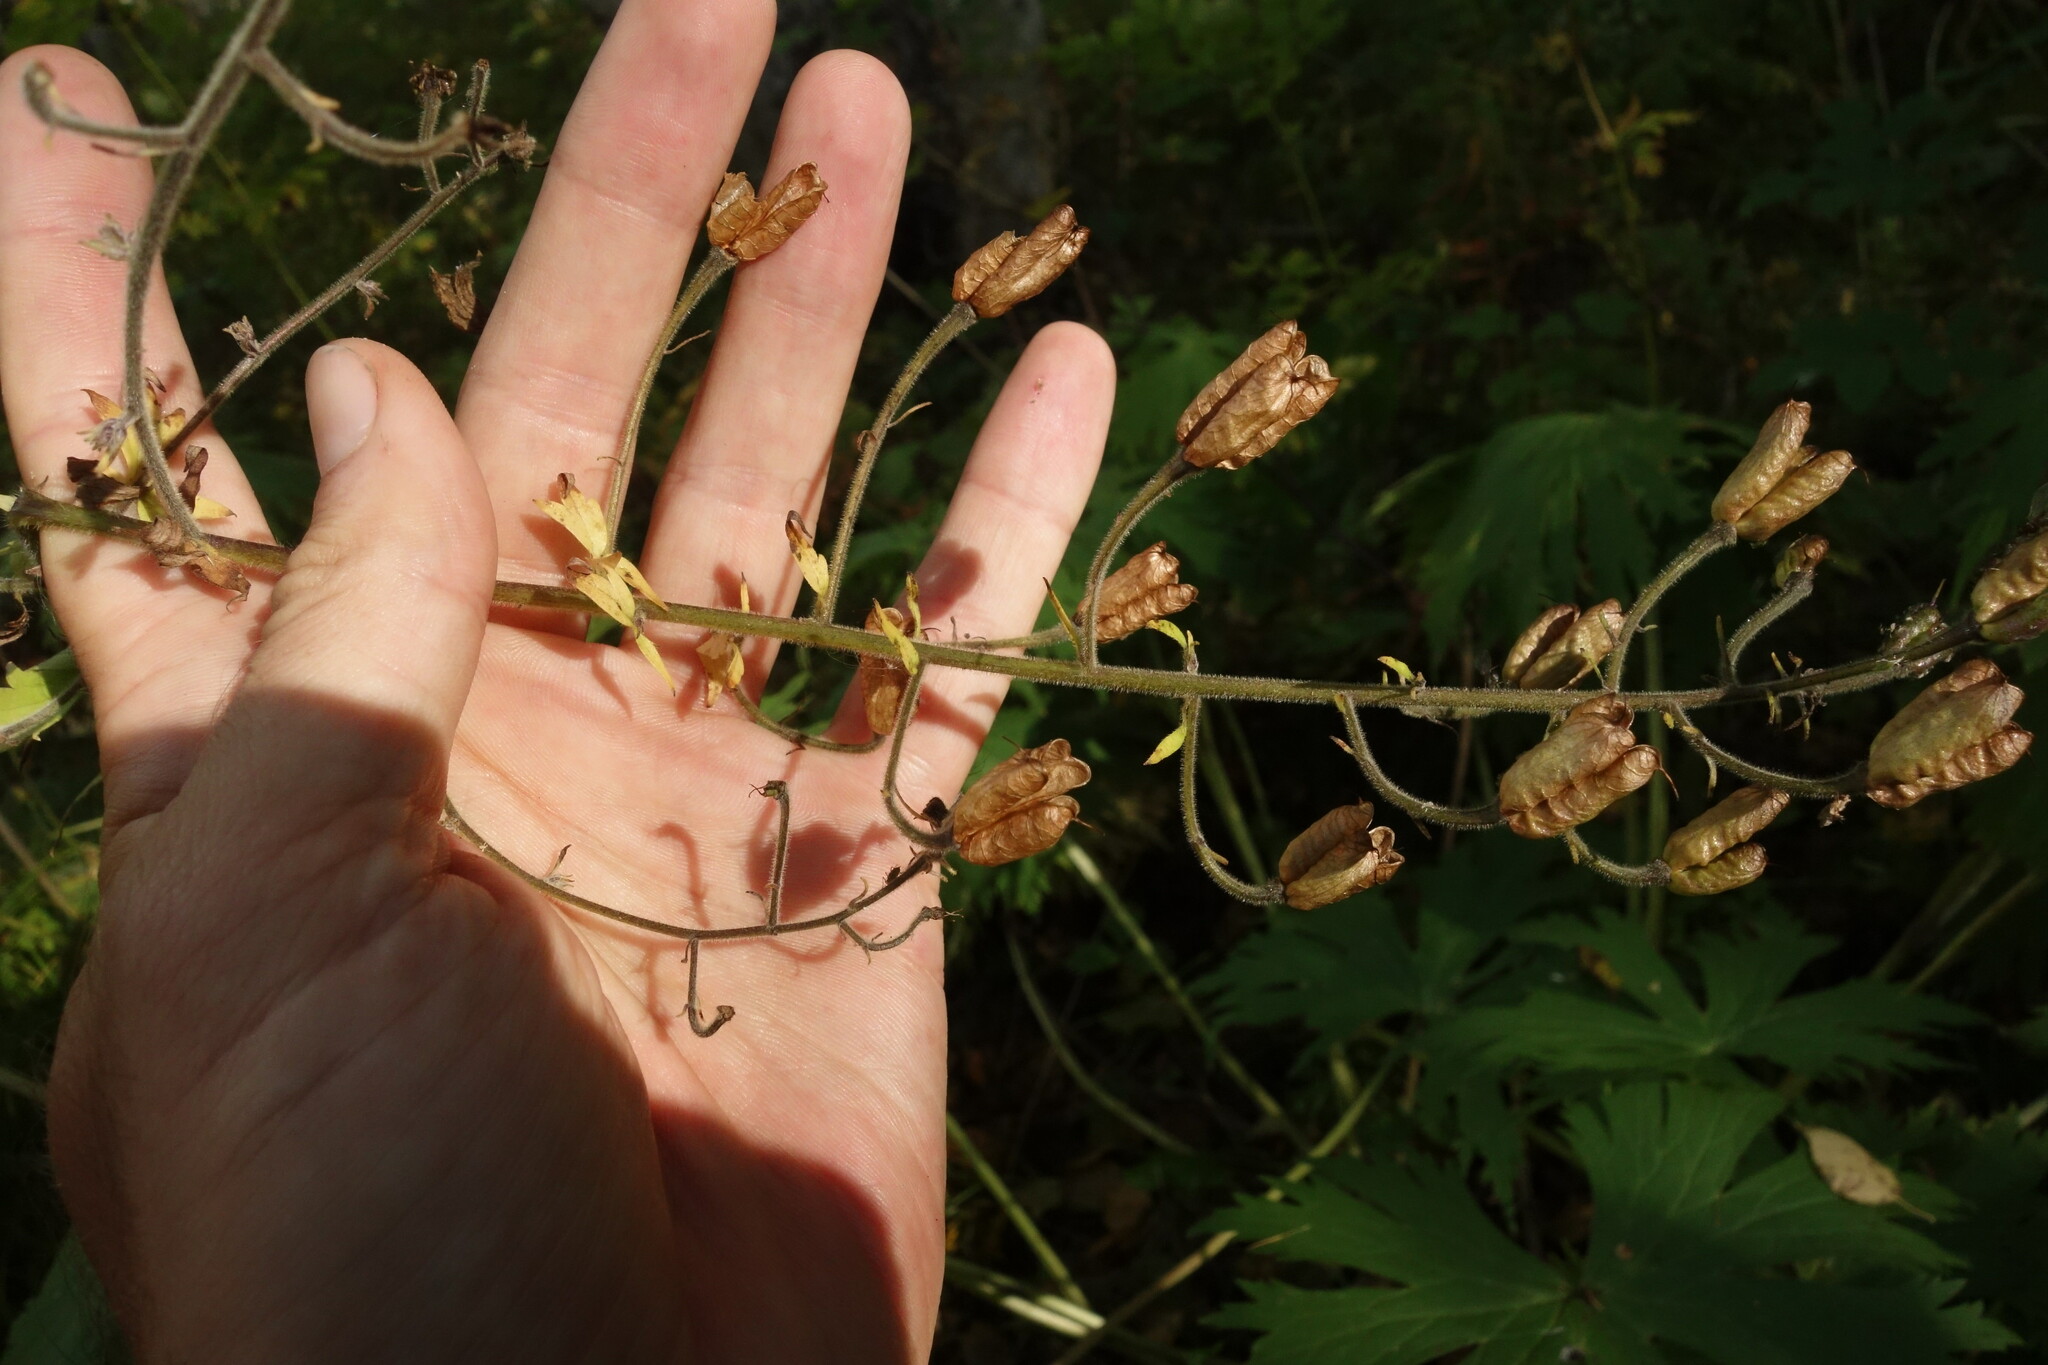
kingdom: Plantae
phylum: Tracheophyta
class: Magnoliopsida
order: Ranunculales
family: Ranunculaceae
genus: Aconitum
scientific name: Aconitum septentrionale
